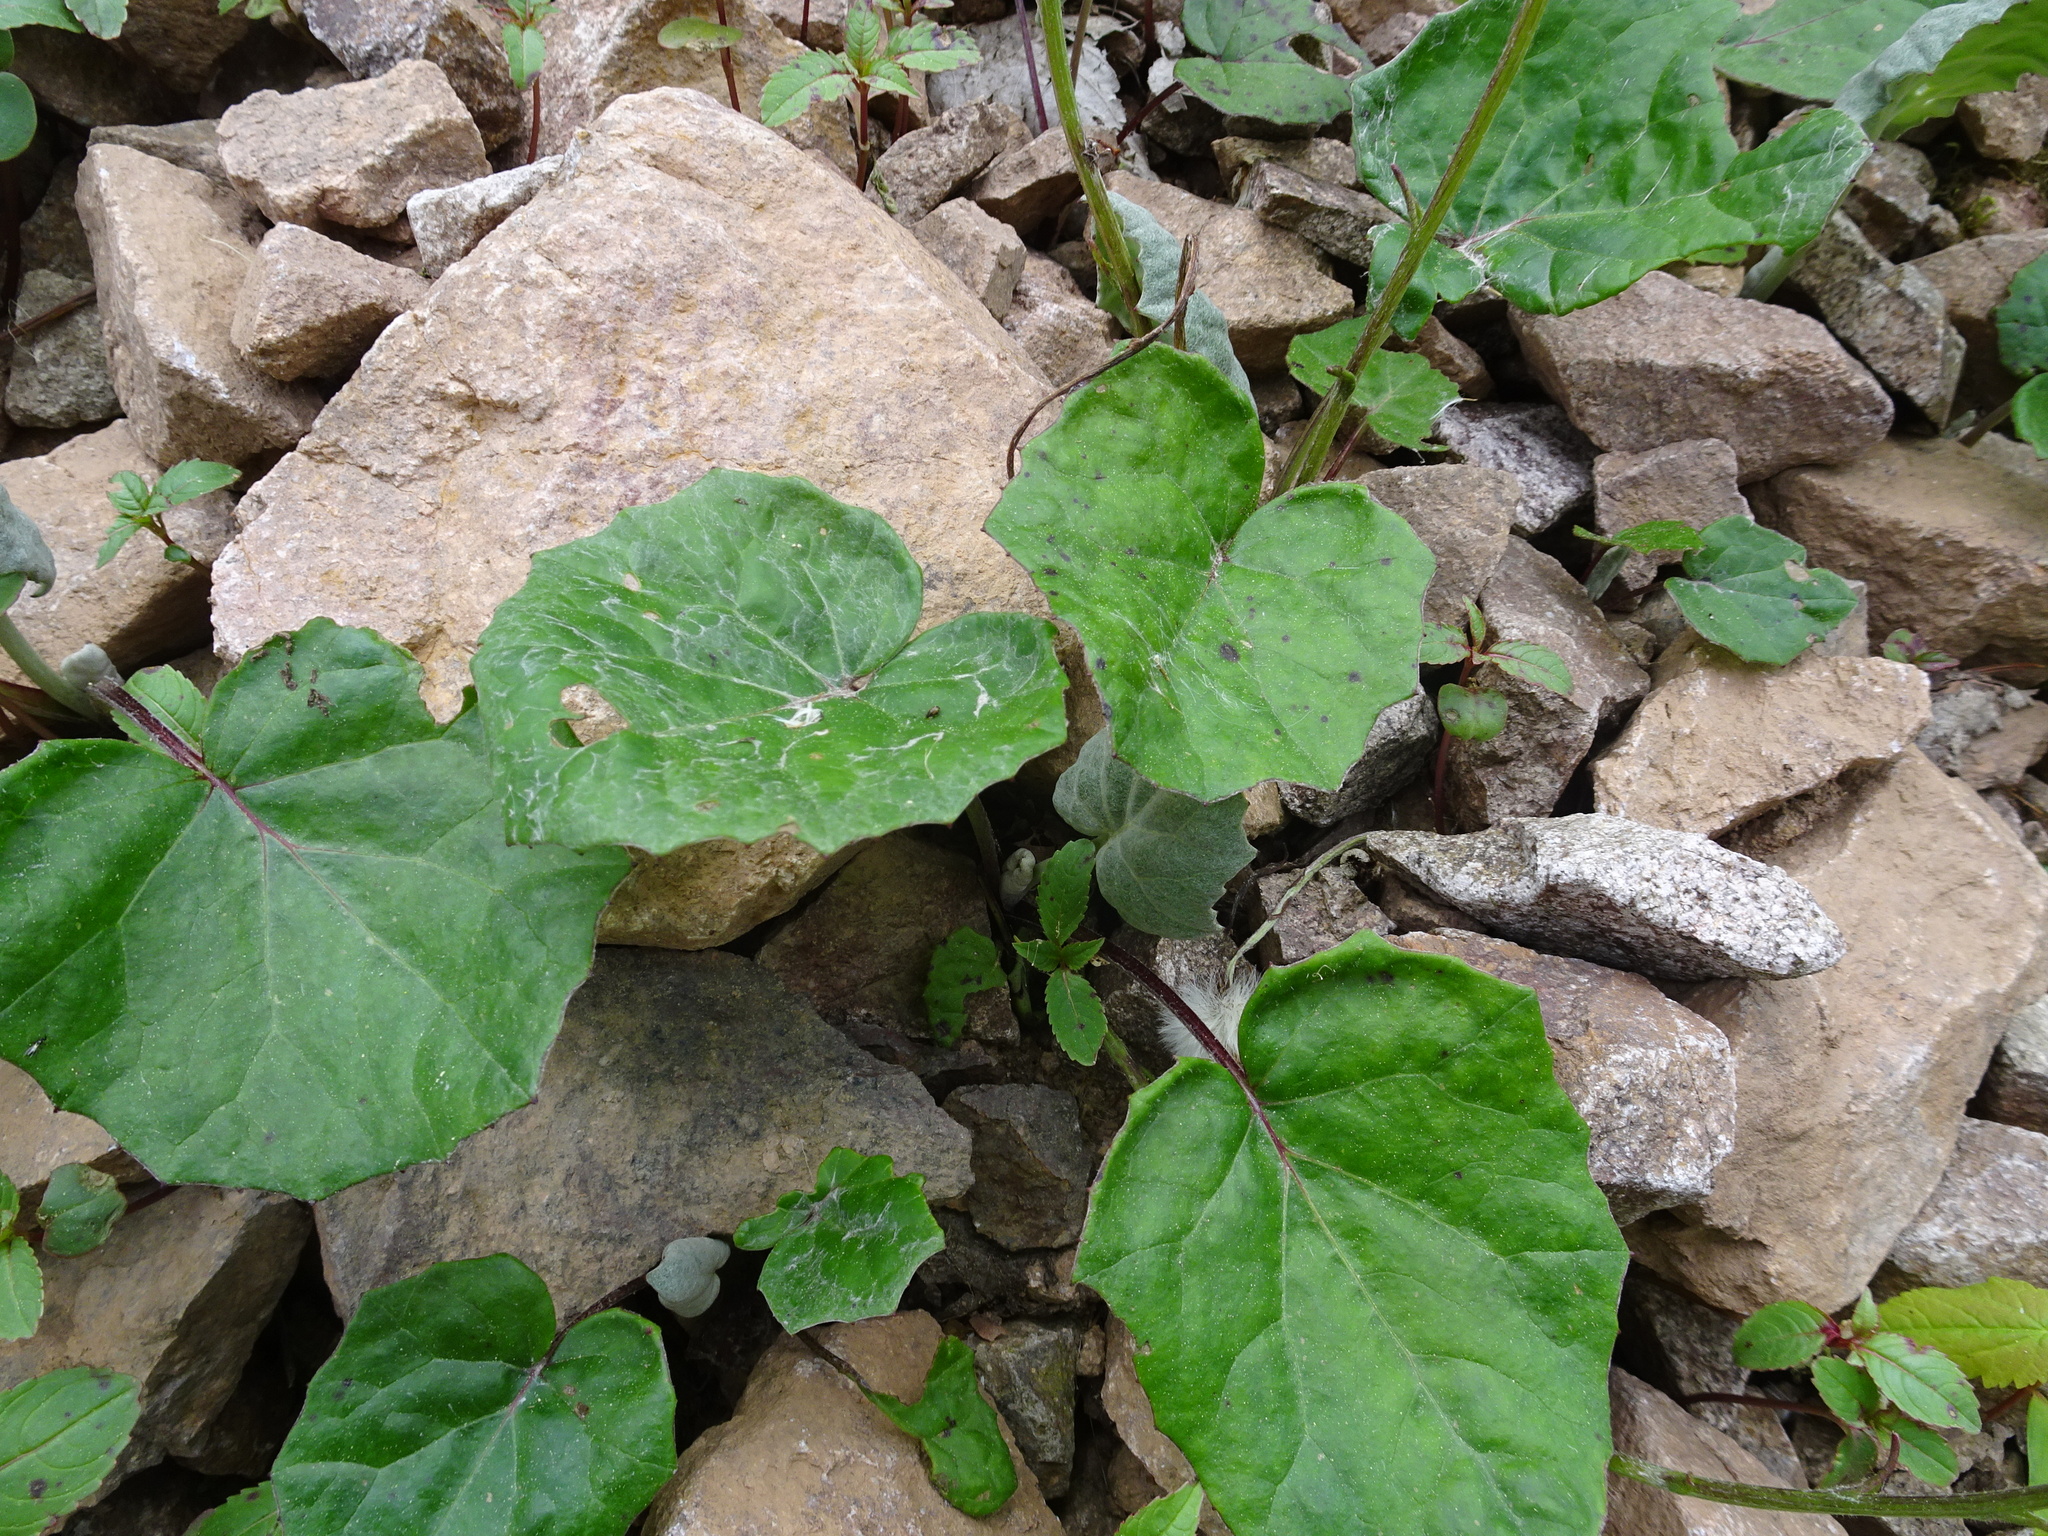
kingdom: Plantae
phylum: Tracheophyta
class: Magnoliopsida
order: Asterales
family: Asteraceae
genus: Tussilago
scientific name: Tussilago farfara
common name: Coltsfoot
